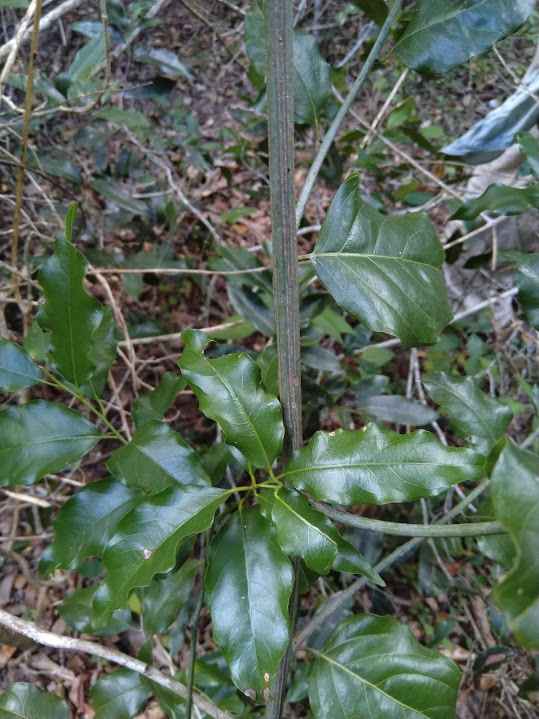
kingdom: Plantae
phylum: Tracheophyta
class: Magnoliopsida
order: Rosales
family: Rhamnaceae
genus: Ventilago
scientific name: Ventilago pubiflora
